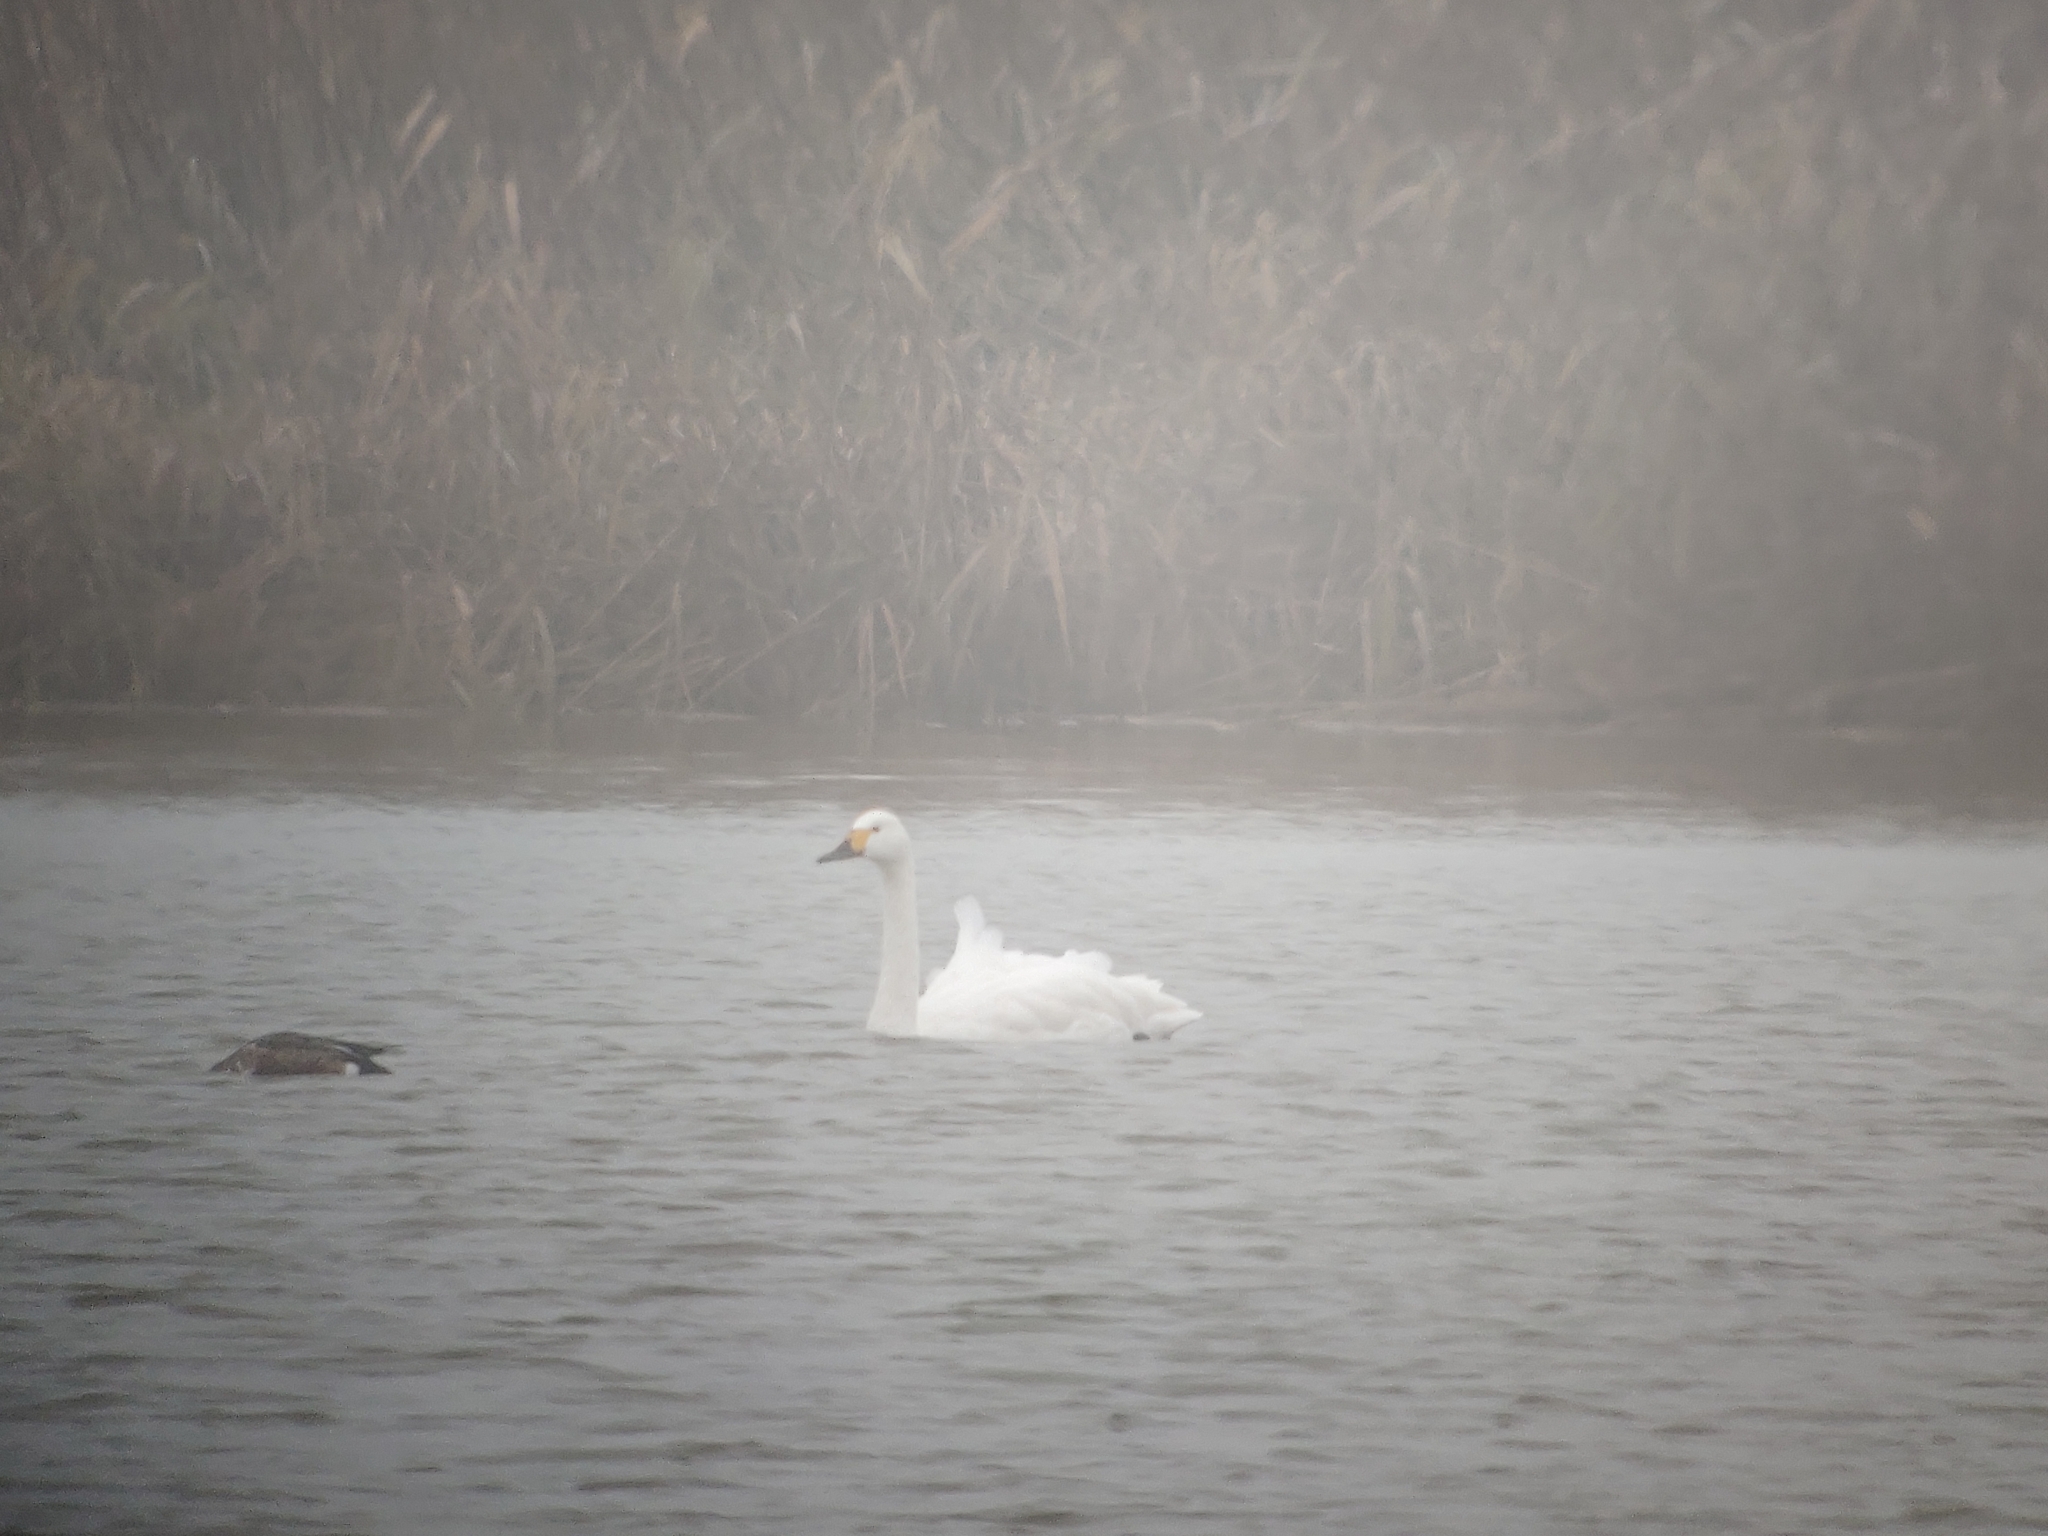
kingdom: Animalia
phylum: Chordata
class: Aves
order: Anseriformes
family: Anatidae
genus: Cygnus
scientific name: Cygnus columbianus
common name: Tundra swan
